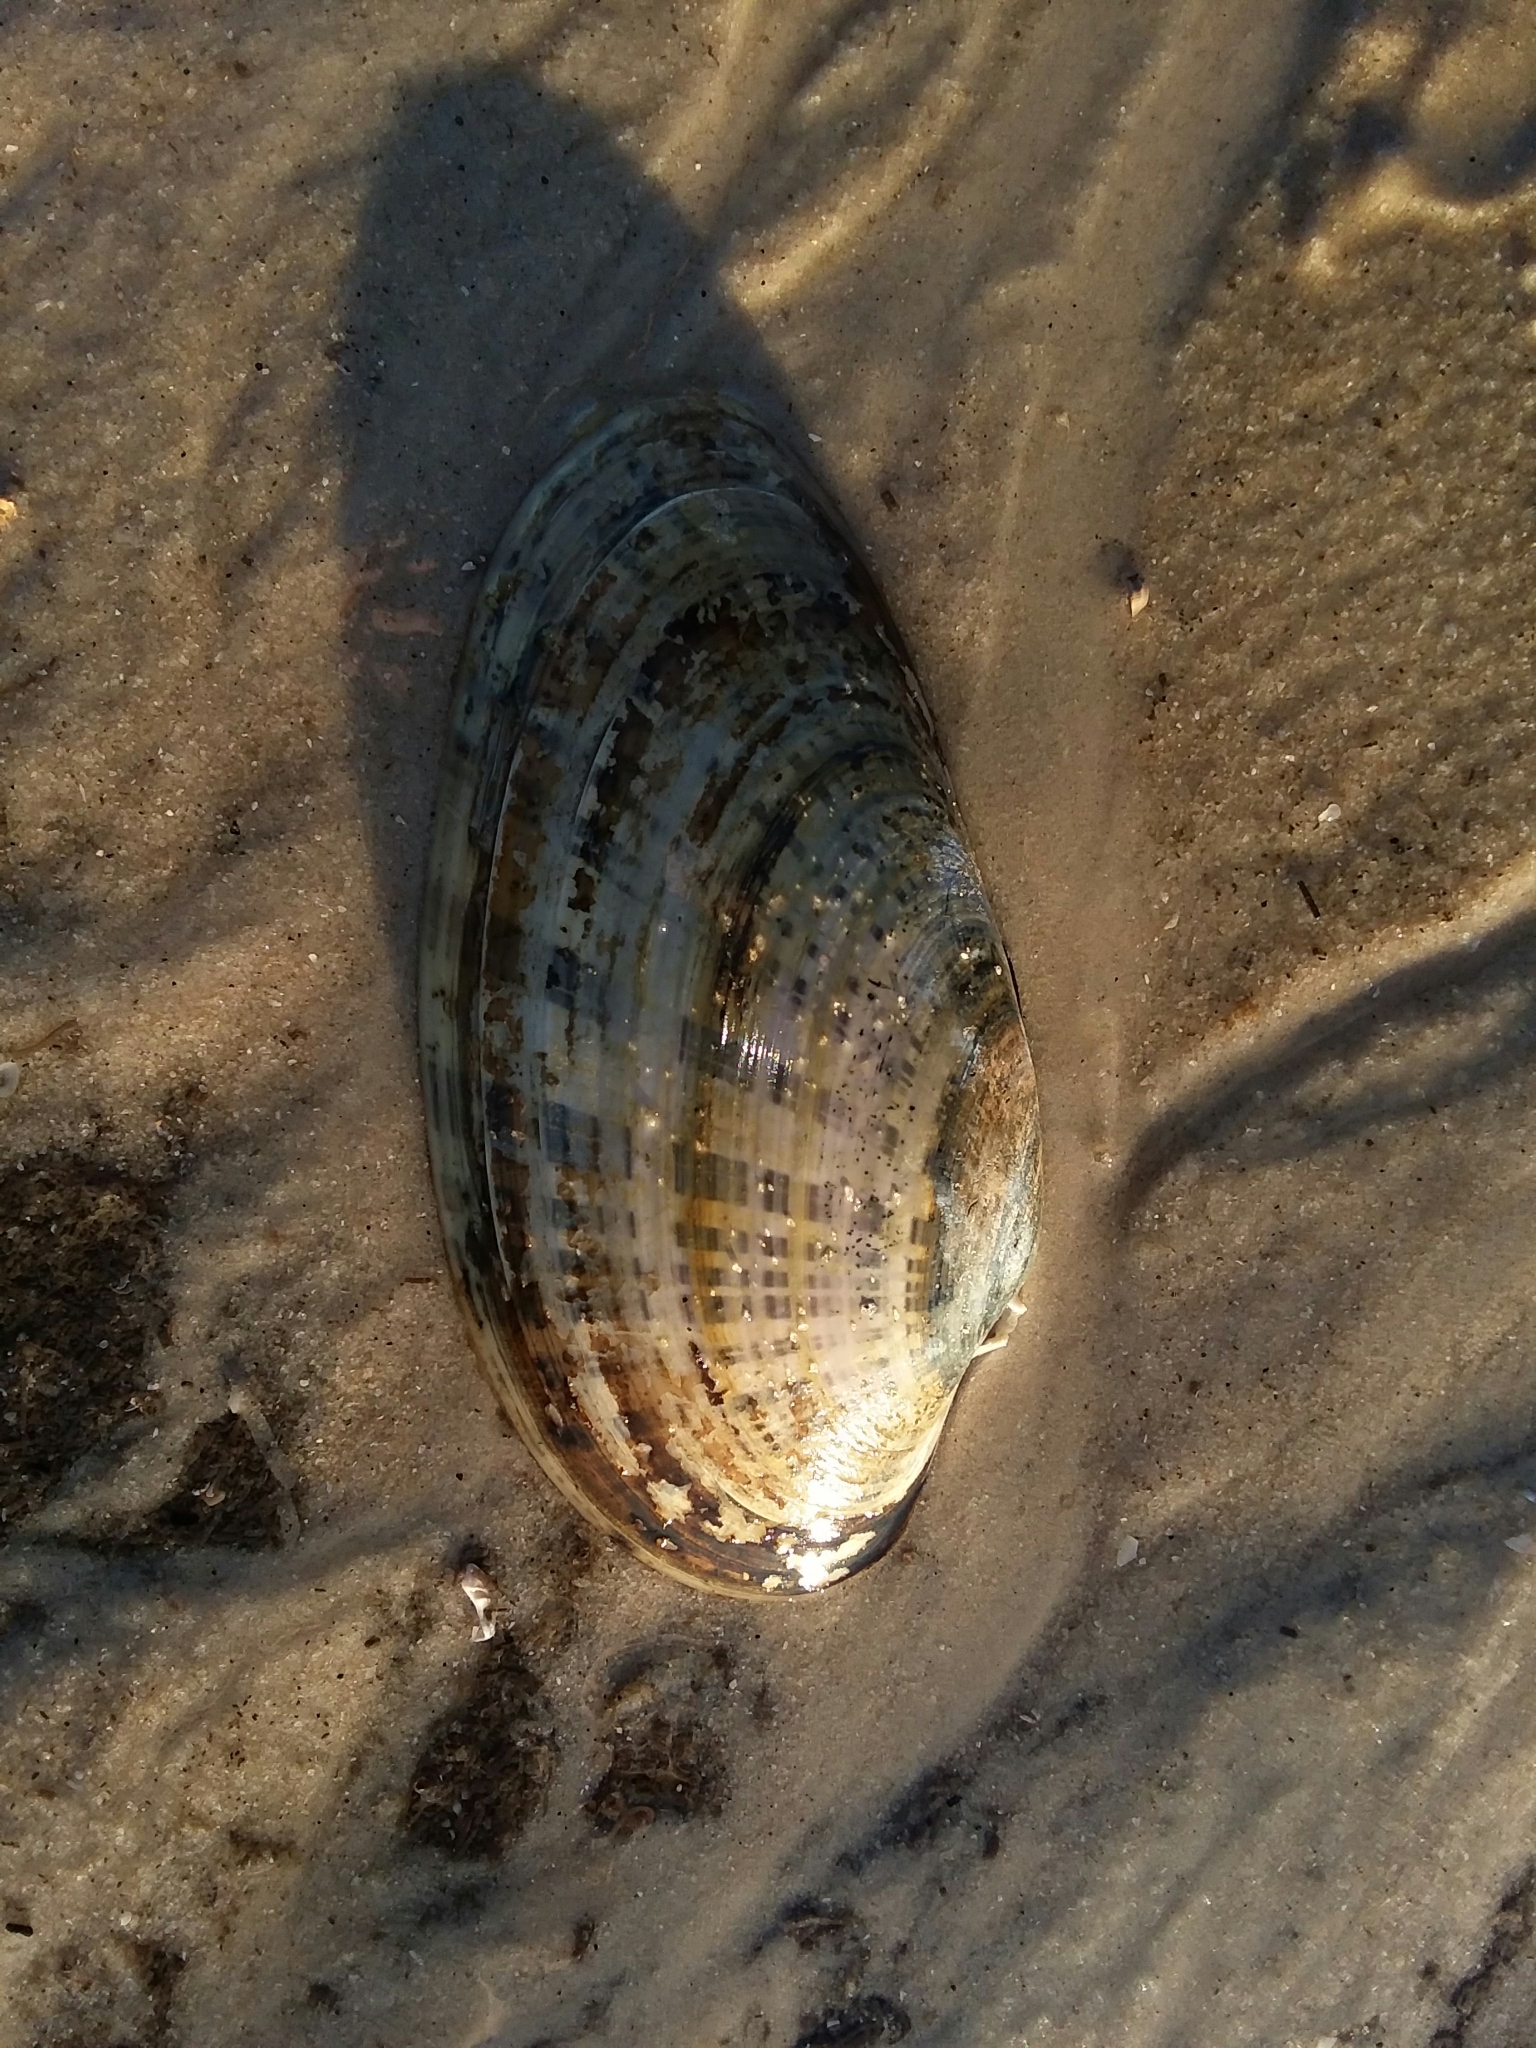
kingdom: Animalia
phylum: Mollusca
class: Bivalvia
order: Venerida
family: Veneridae
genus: Macrocallista
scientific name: Macrocallista nimbosa
